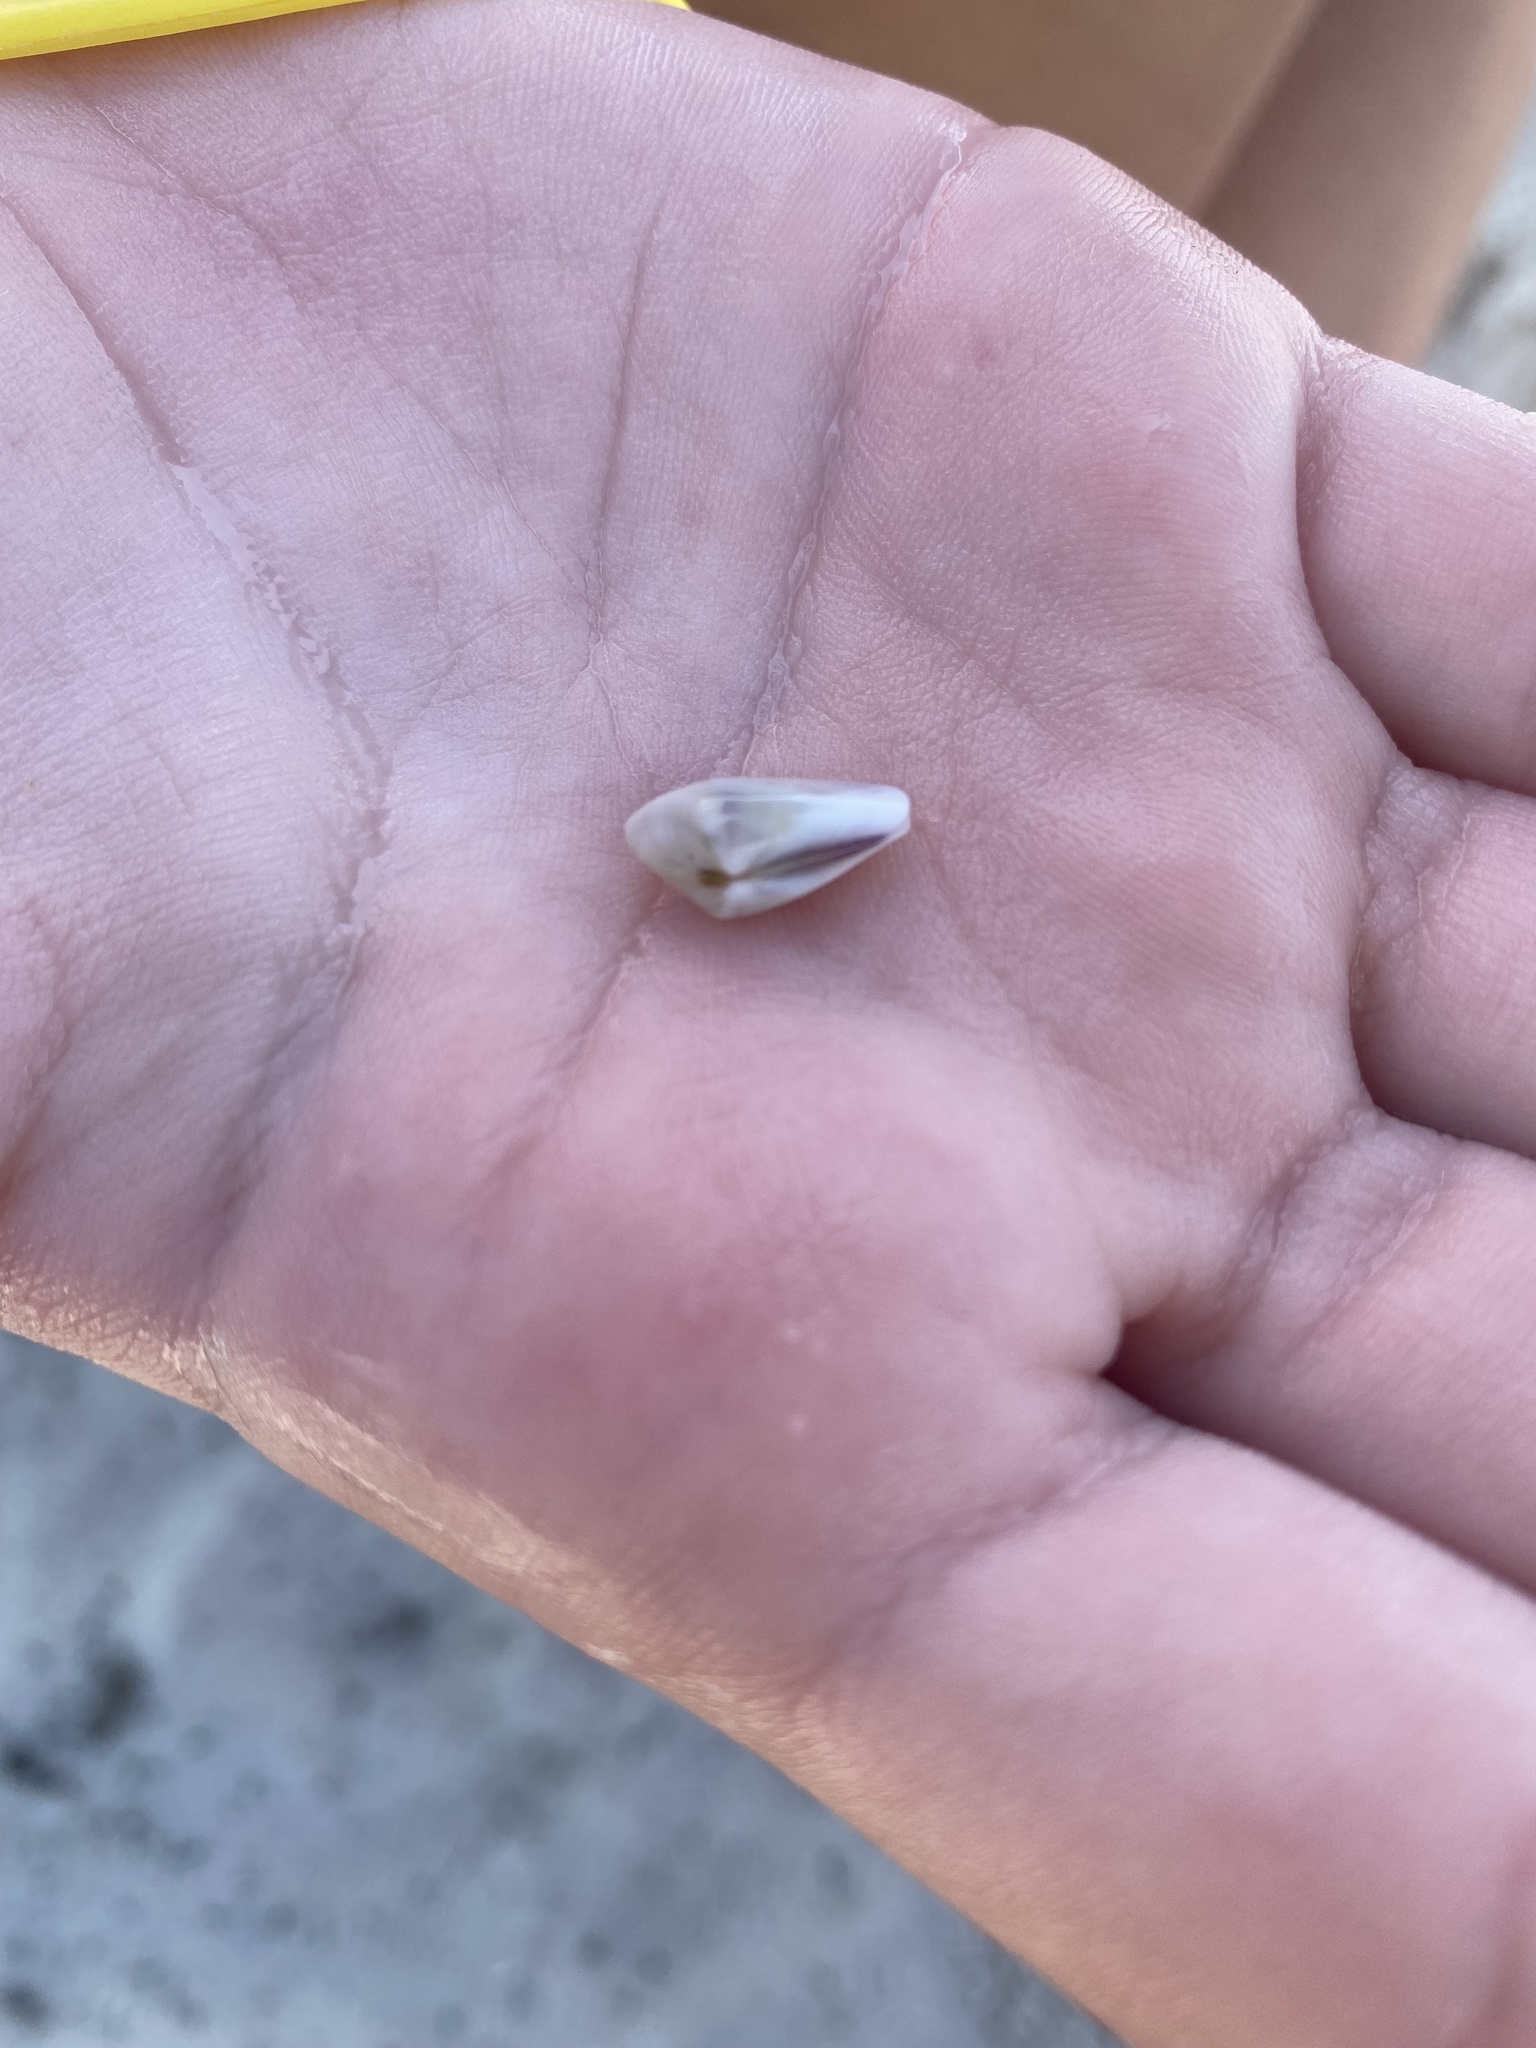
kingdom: Animalia
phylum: Mollusca
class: Bivalvia
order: Cardiida
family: Donacidae
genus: Donax
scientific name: Donax variabilis
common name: Butterfly shell
